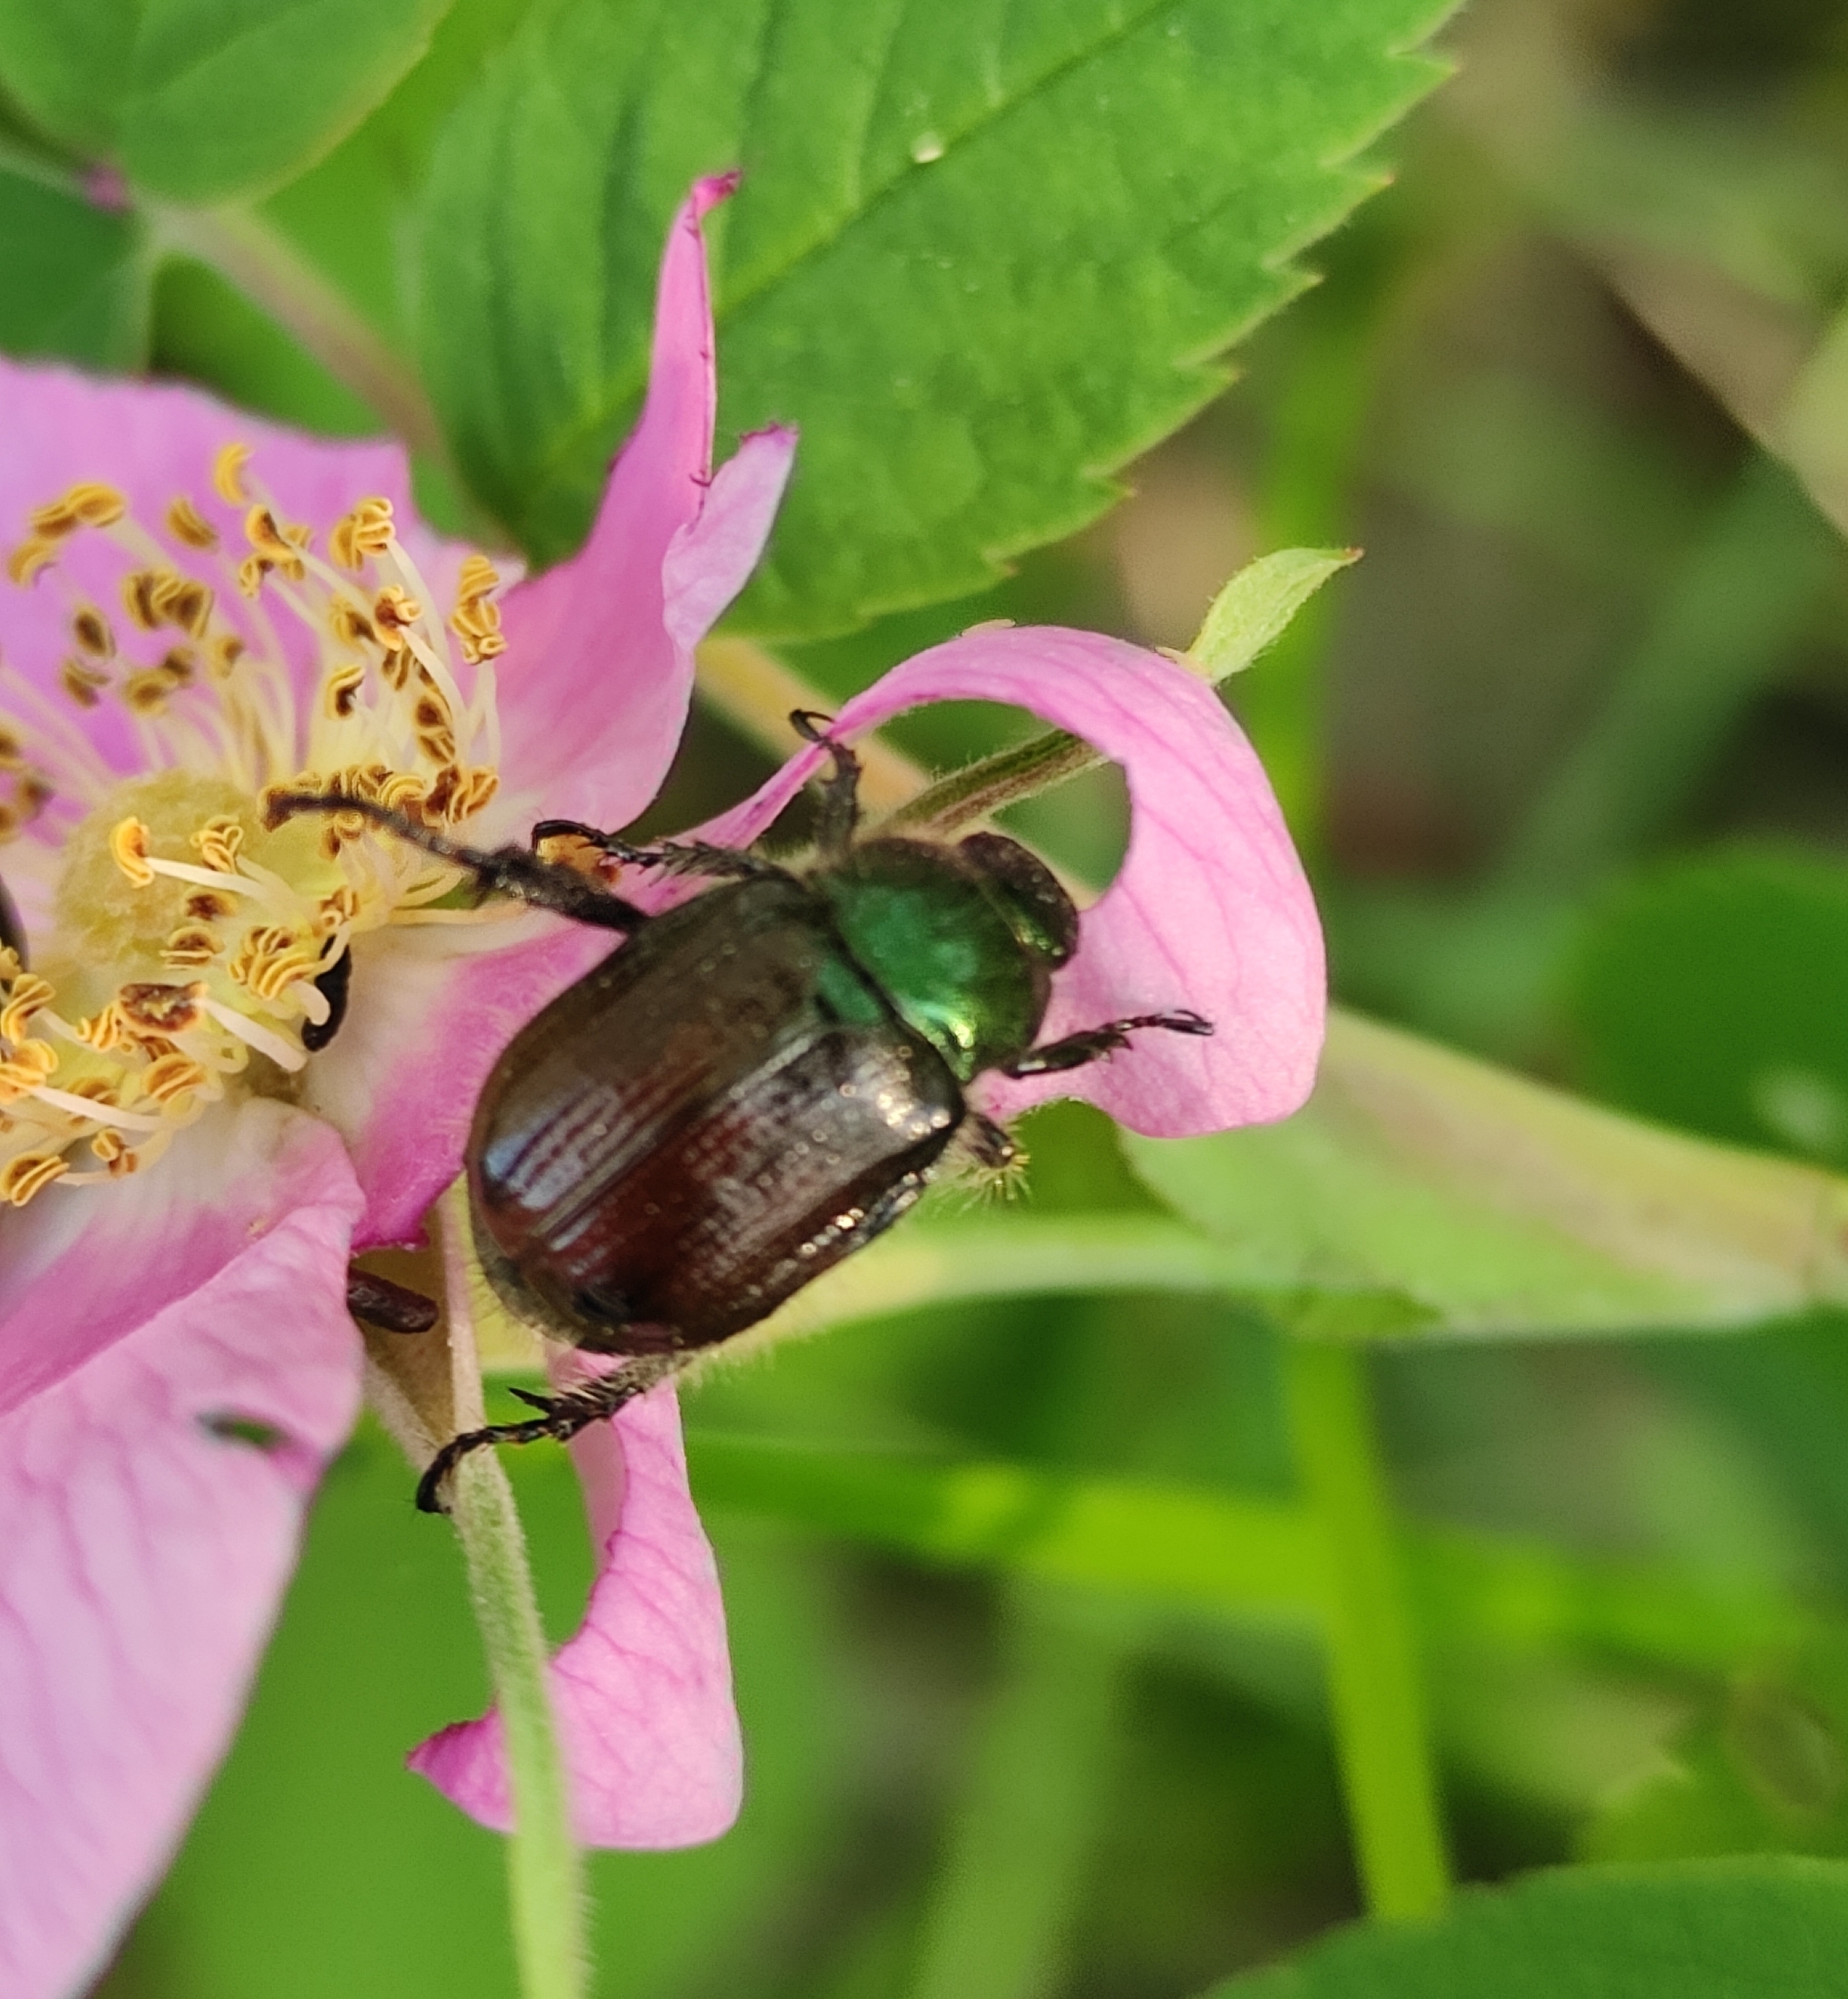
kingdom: Animalia
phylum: Arthropoda
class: Insecta
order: Coleoptera
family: Scarabaeidae
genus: Phyllopertha
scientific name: Phyllopertha horticola
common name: Garden chafer
